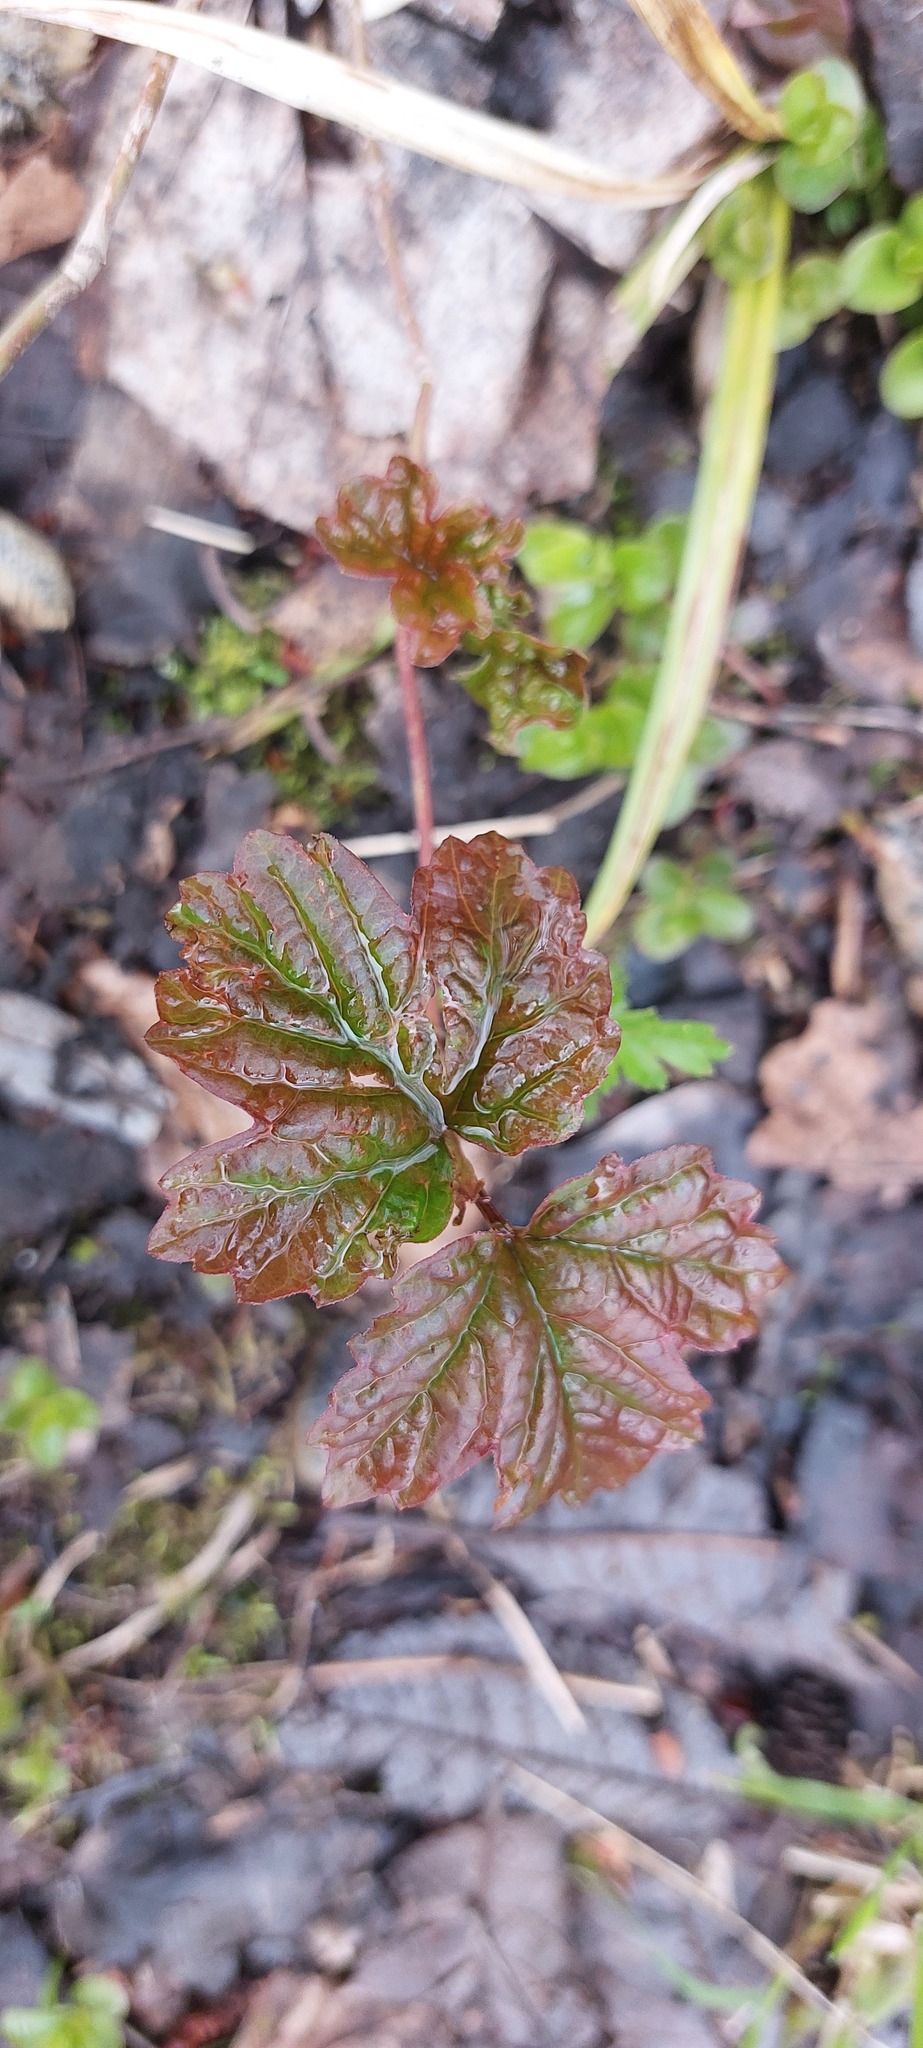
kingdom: Plantae
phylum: Tracheophyta
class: Magnoliopsida
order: Dipsacales
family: Viburnaceae
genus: Viburnum
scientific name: Viburnum opulus
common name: Guelder-rose
